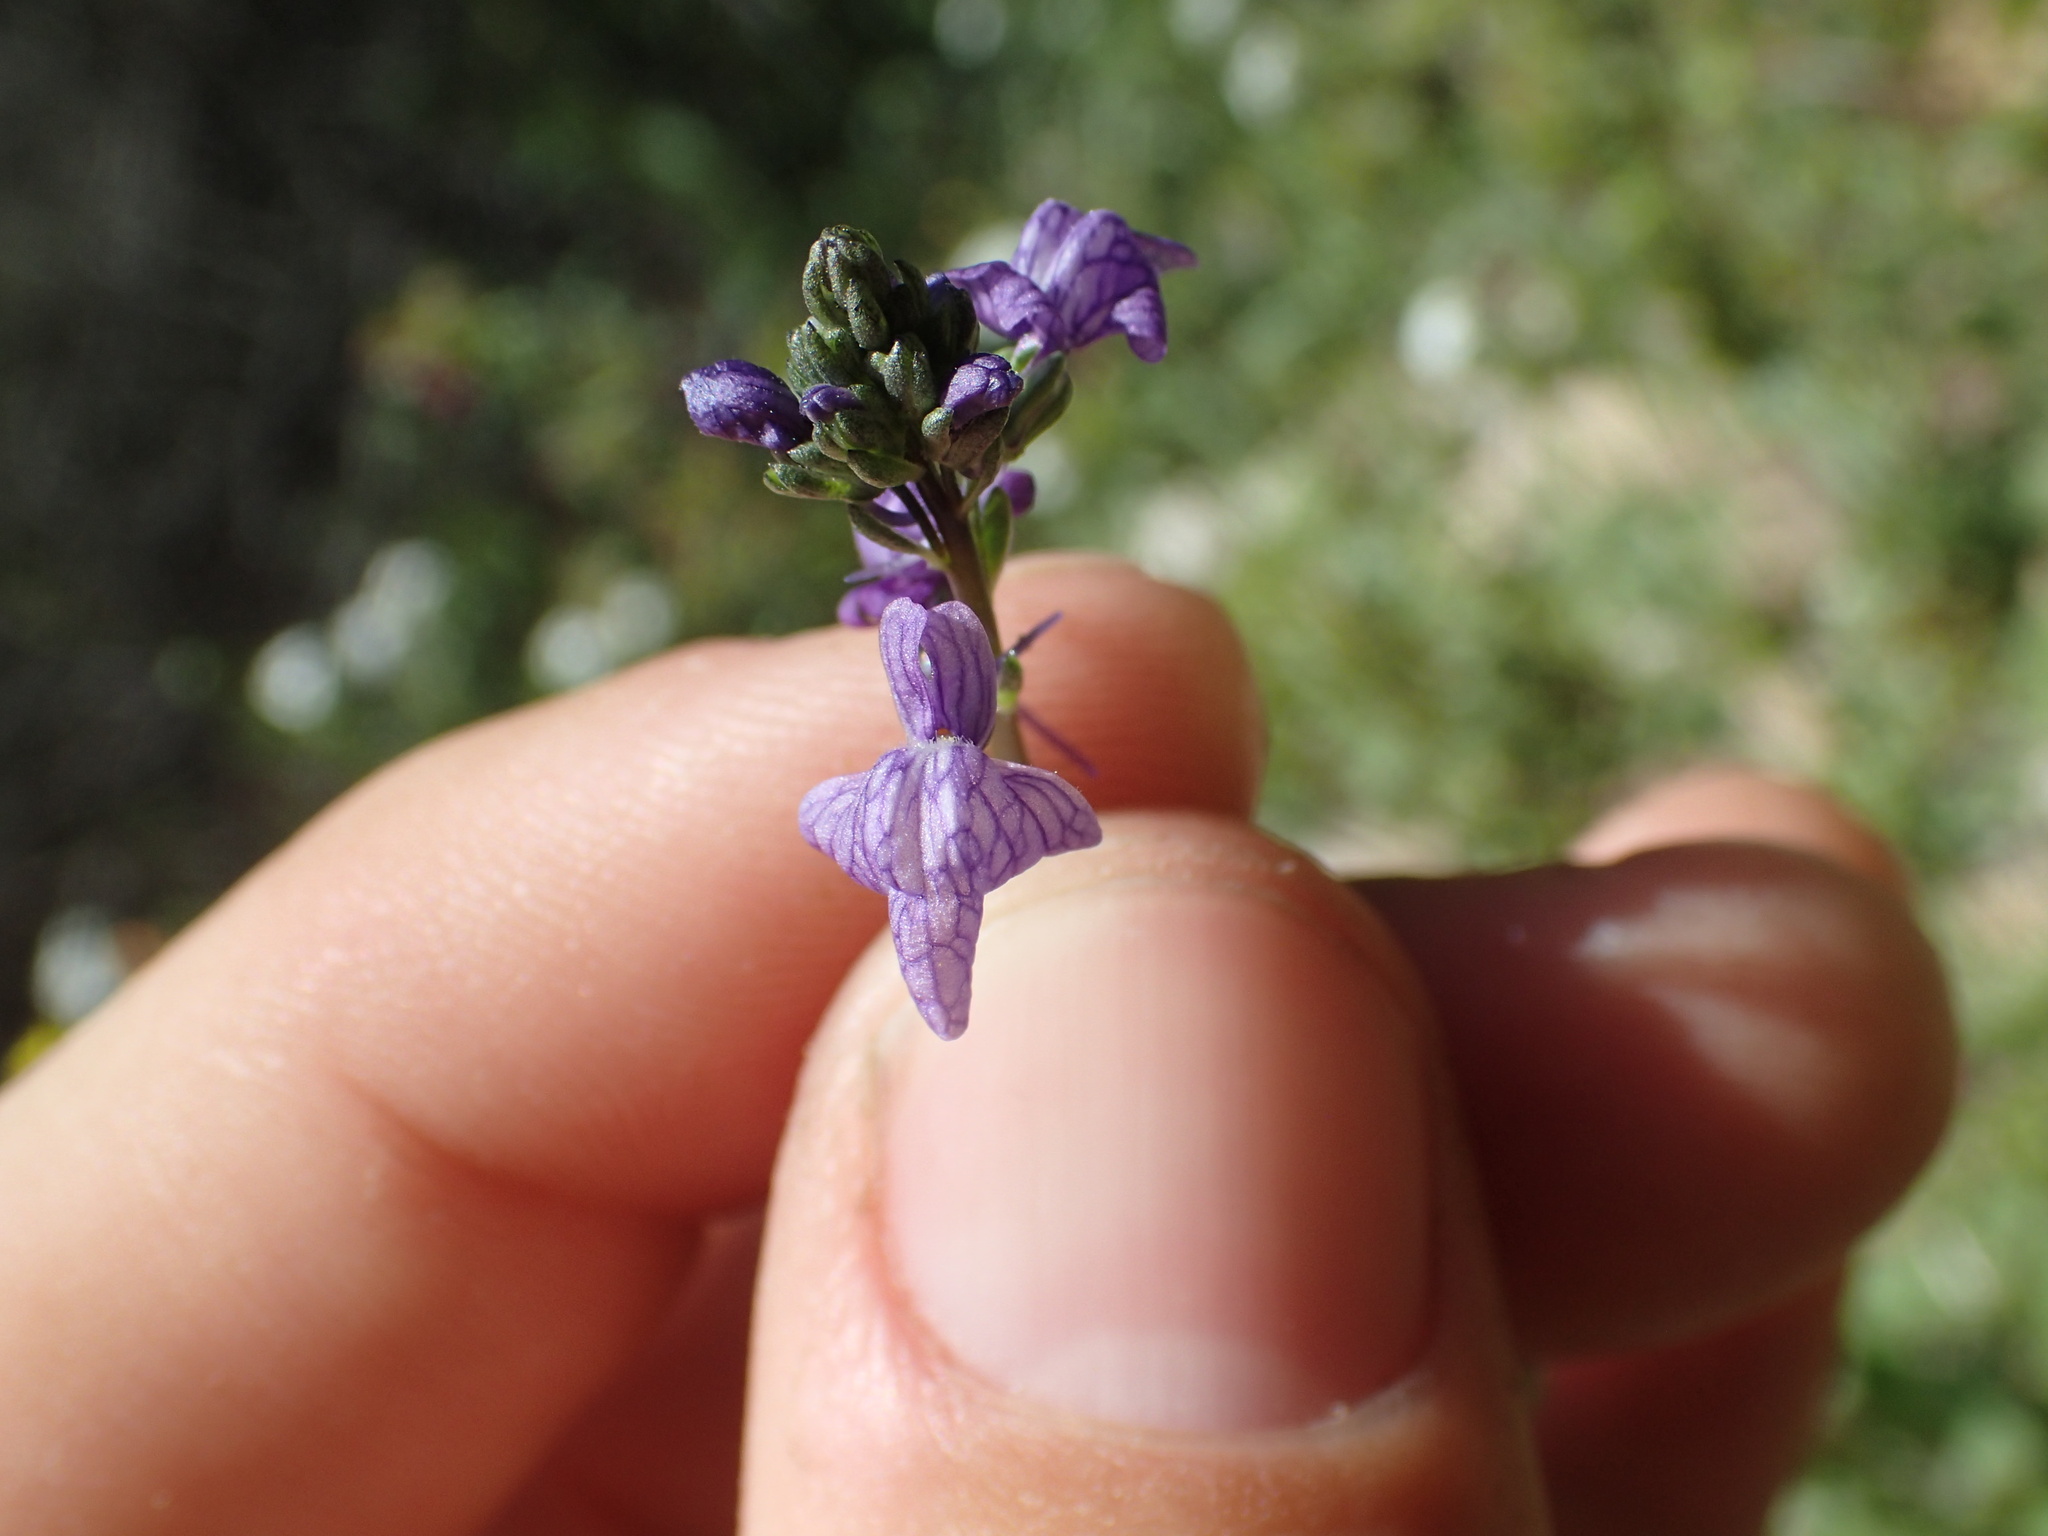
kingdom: Plantae
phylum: Tracheophyta
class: Magnoliopsida
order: Lamiales
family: Plantaginaceae
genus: Nuttallanthus
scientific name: Nuttallanthus texanus
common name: Texas toadflax
